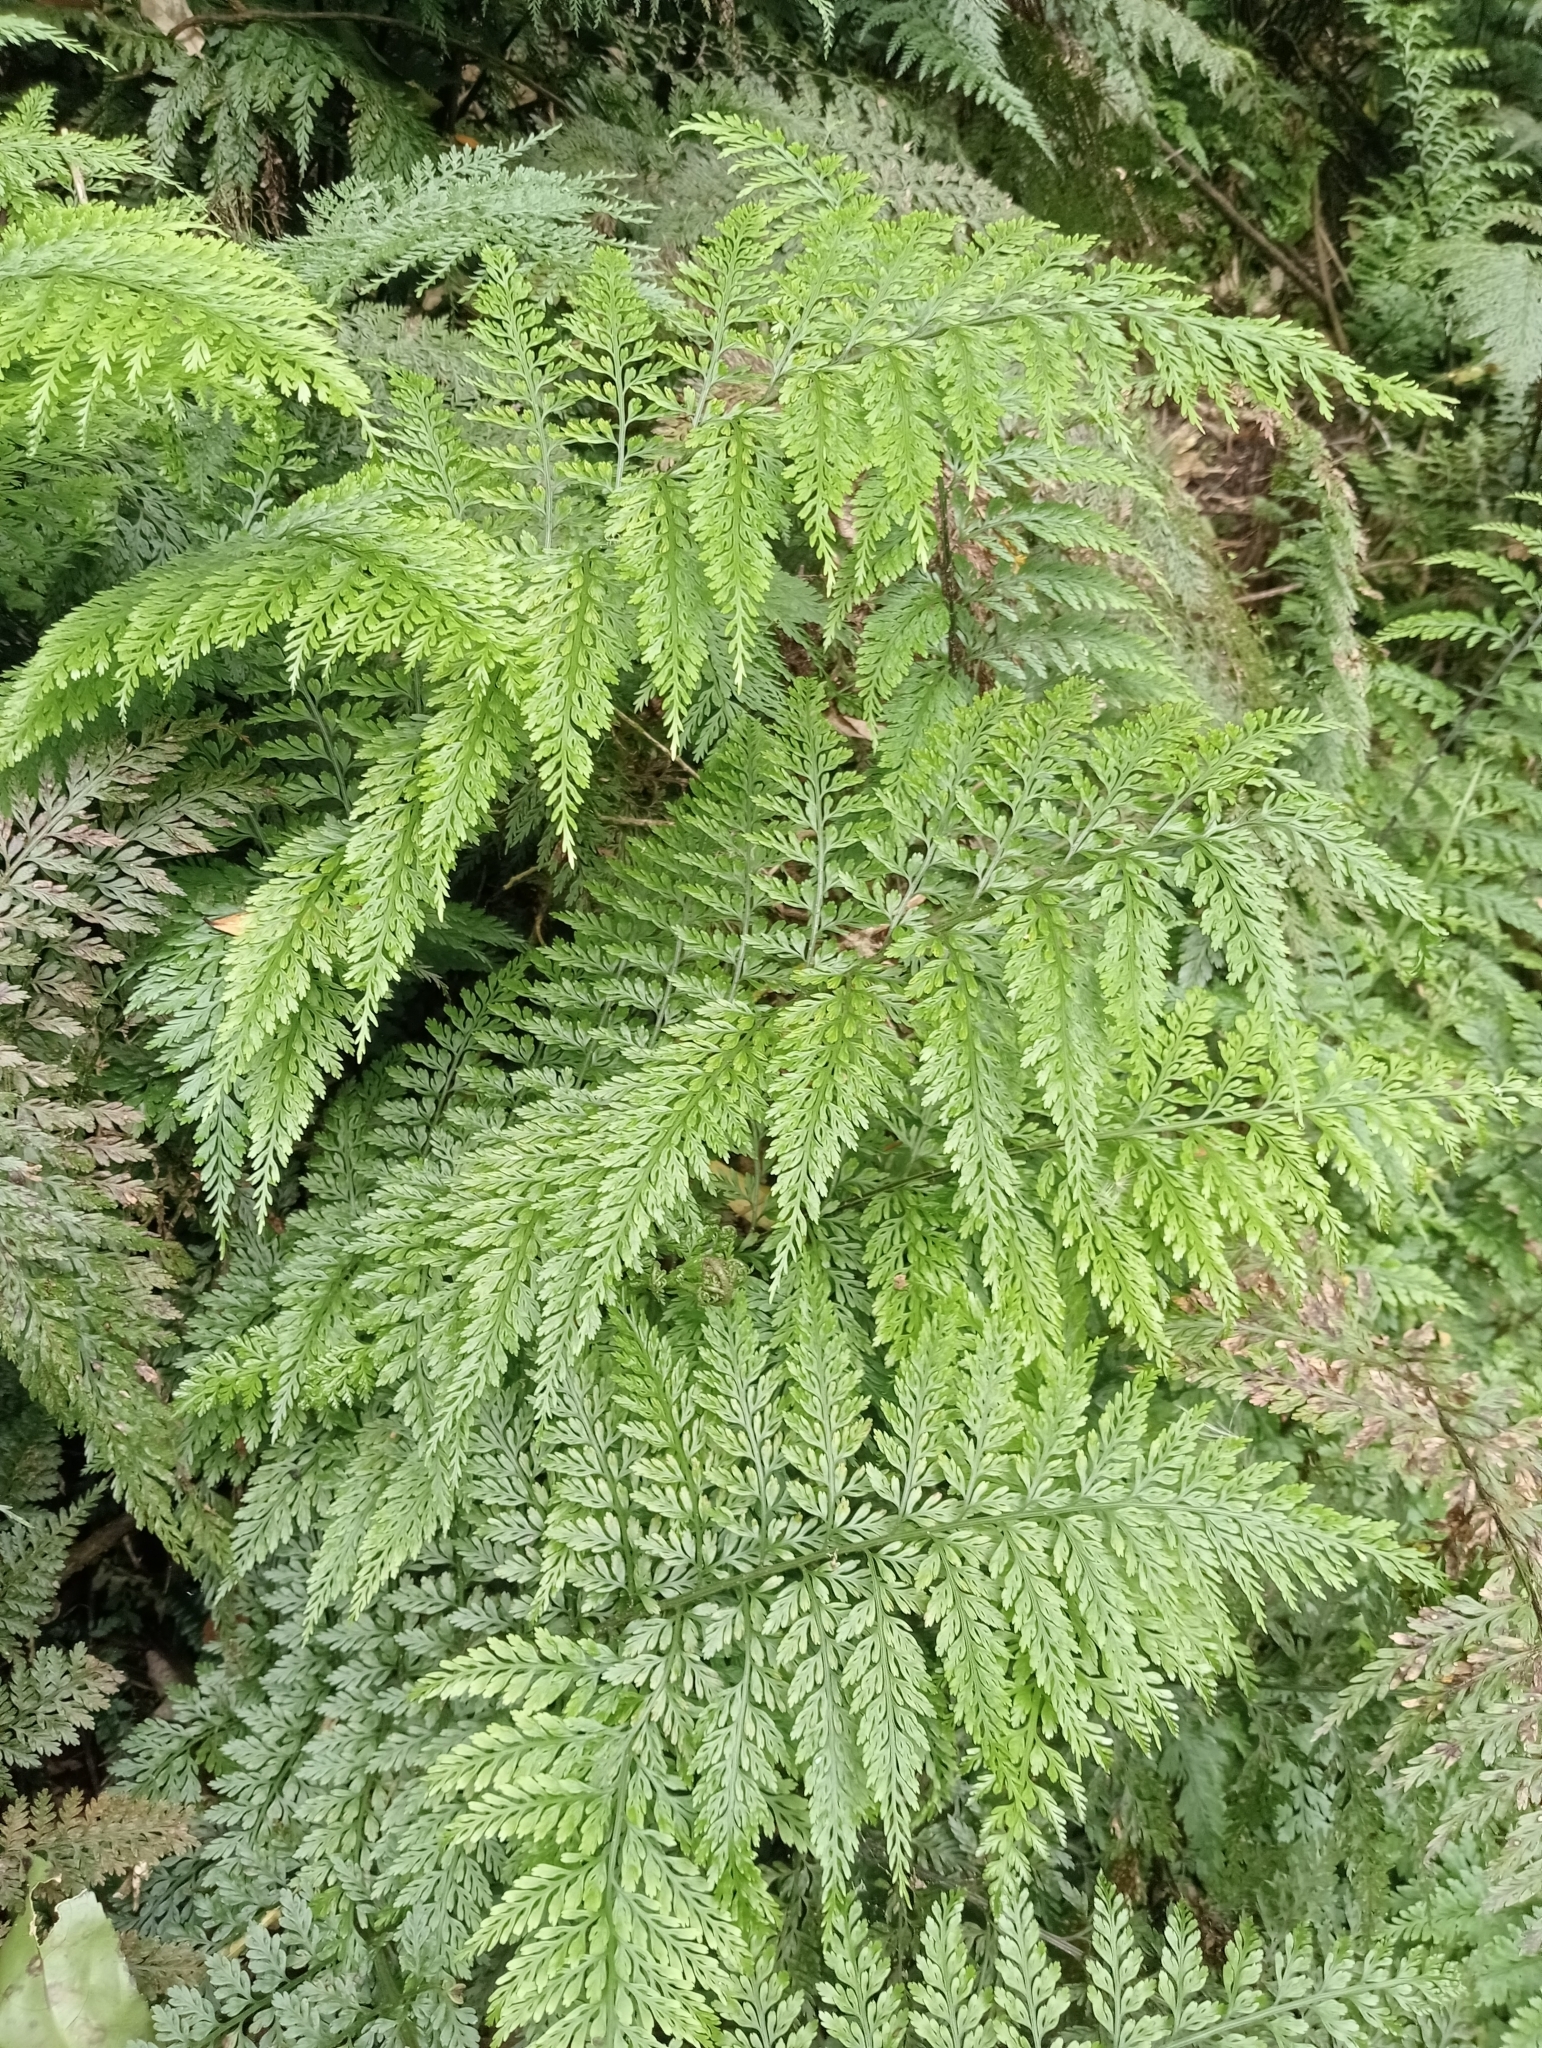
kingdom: Plantae
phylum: Tracheophyta
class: Polypodiopsida
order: Polypodiales
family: Aspleniaceae
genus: Asplenium
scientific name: Asplenium
